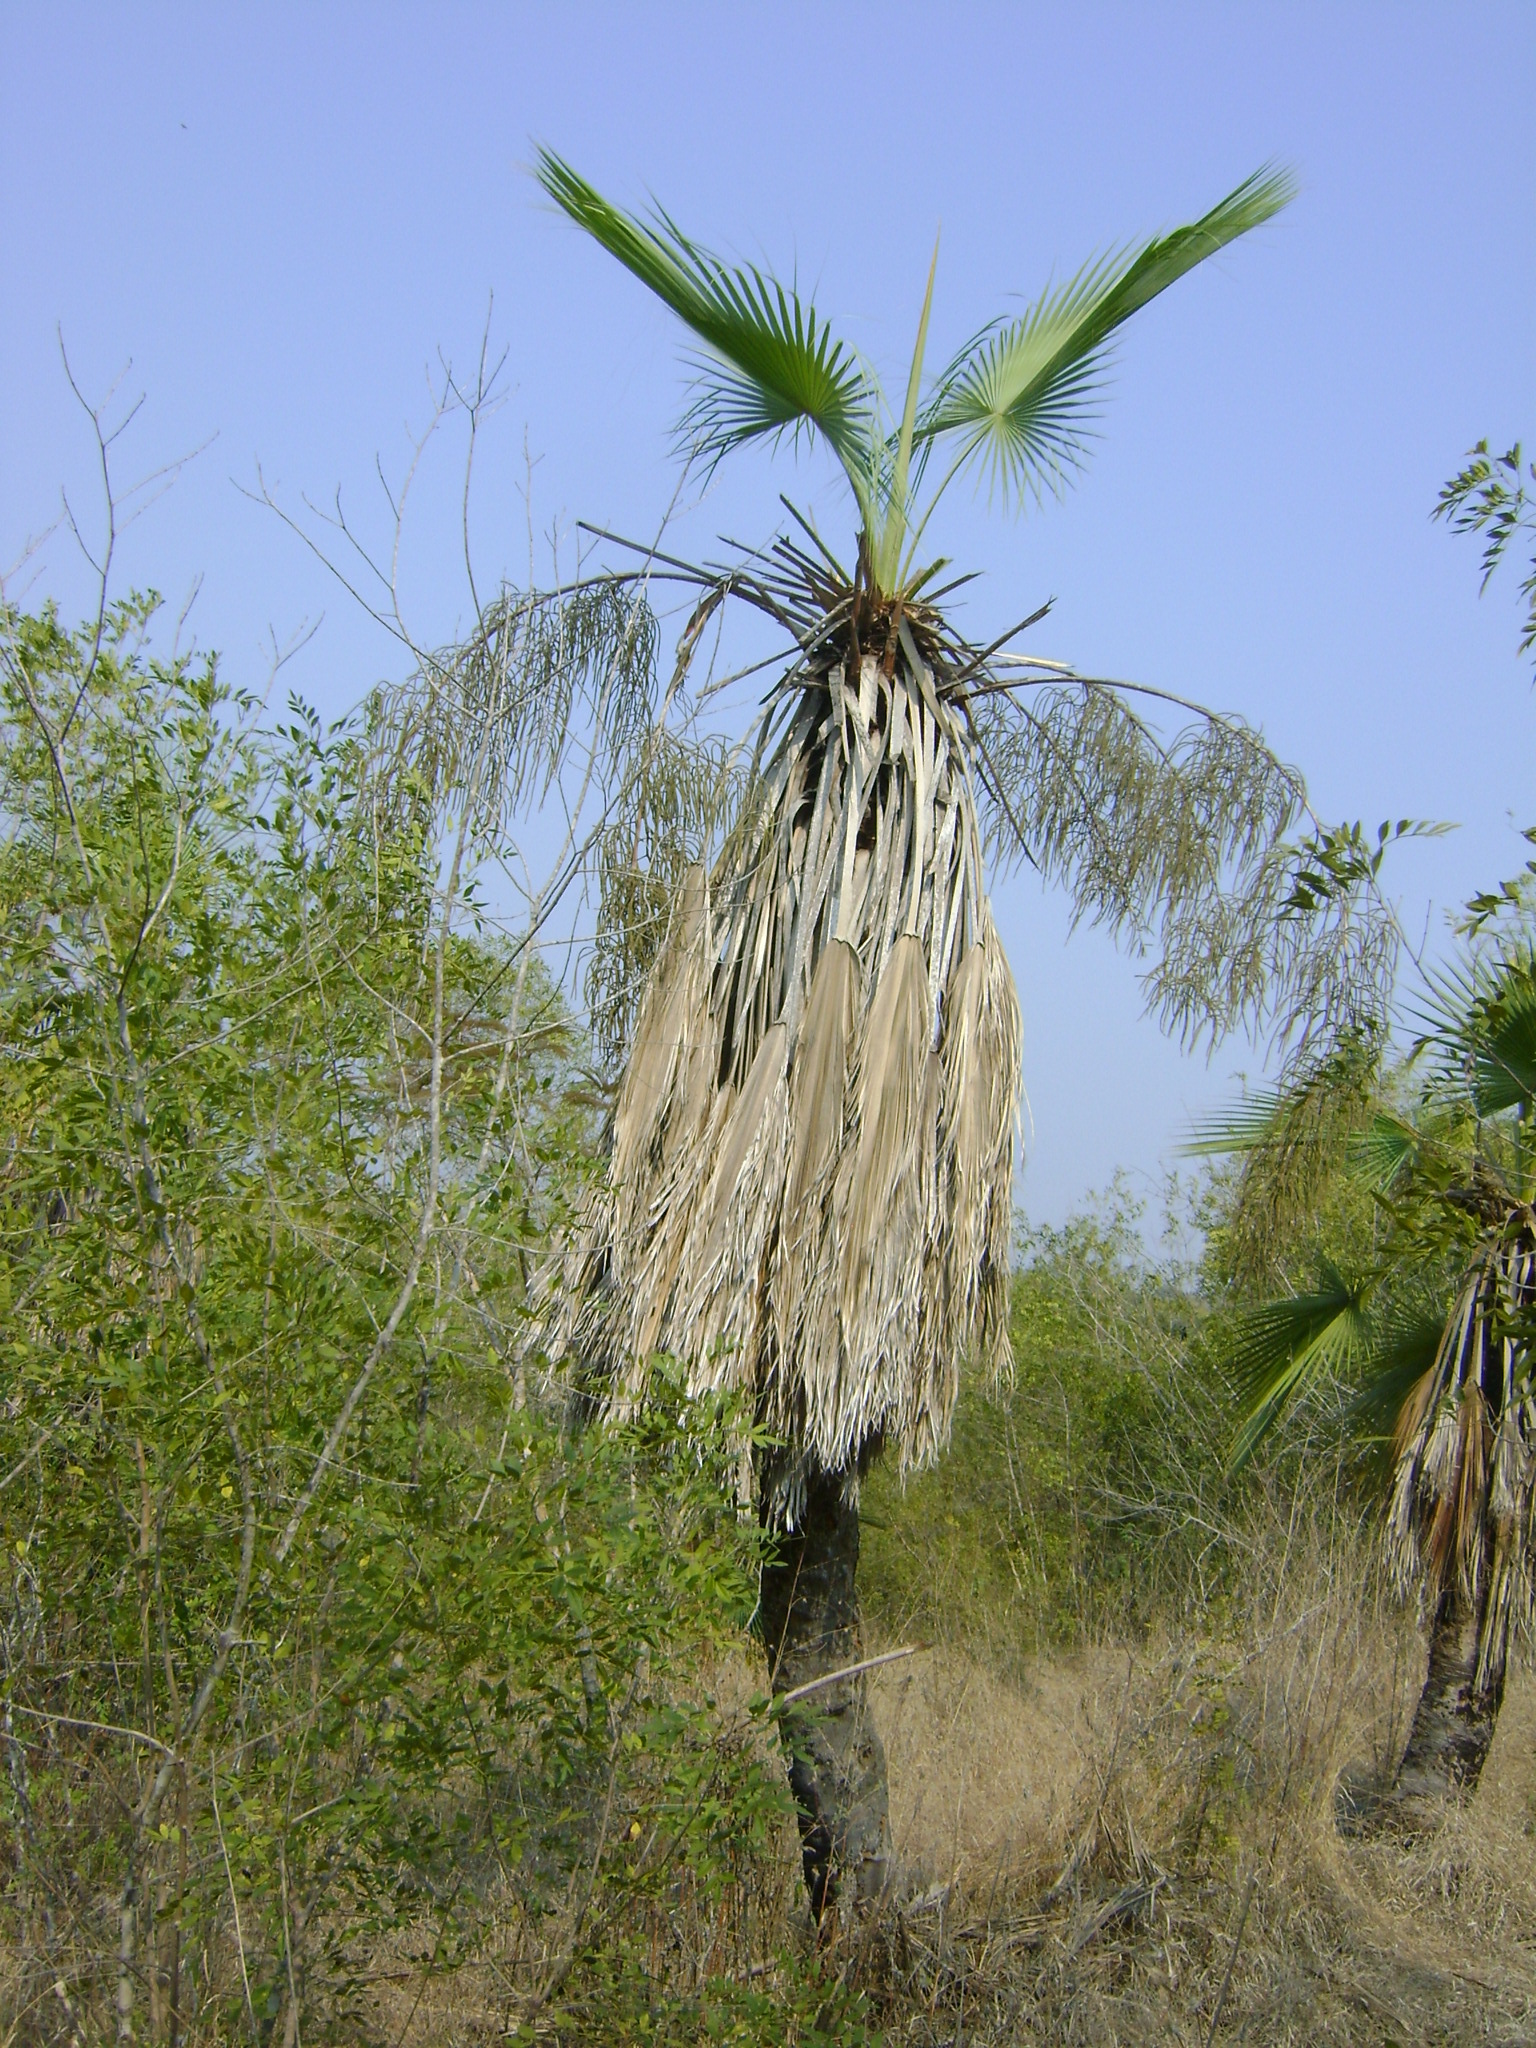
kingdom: Plantae
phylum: Tracheophyta
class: Liliopsida
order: Arecales
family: Arecaceae
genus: Brahea
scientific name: Brahea dulcis
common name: Apak palm
